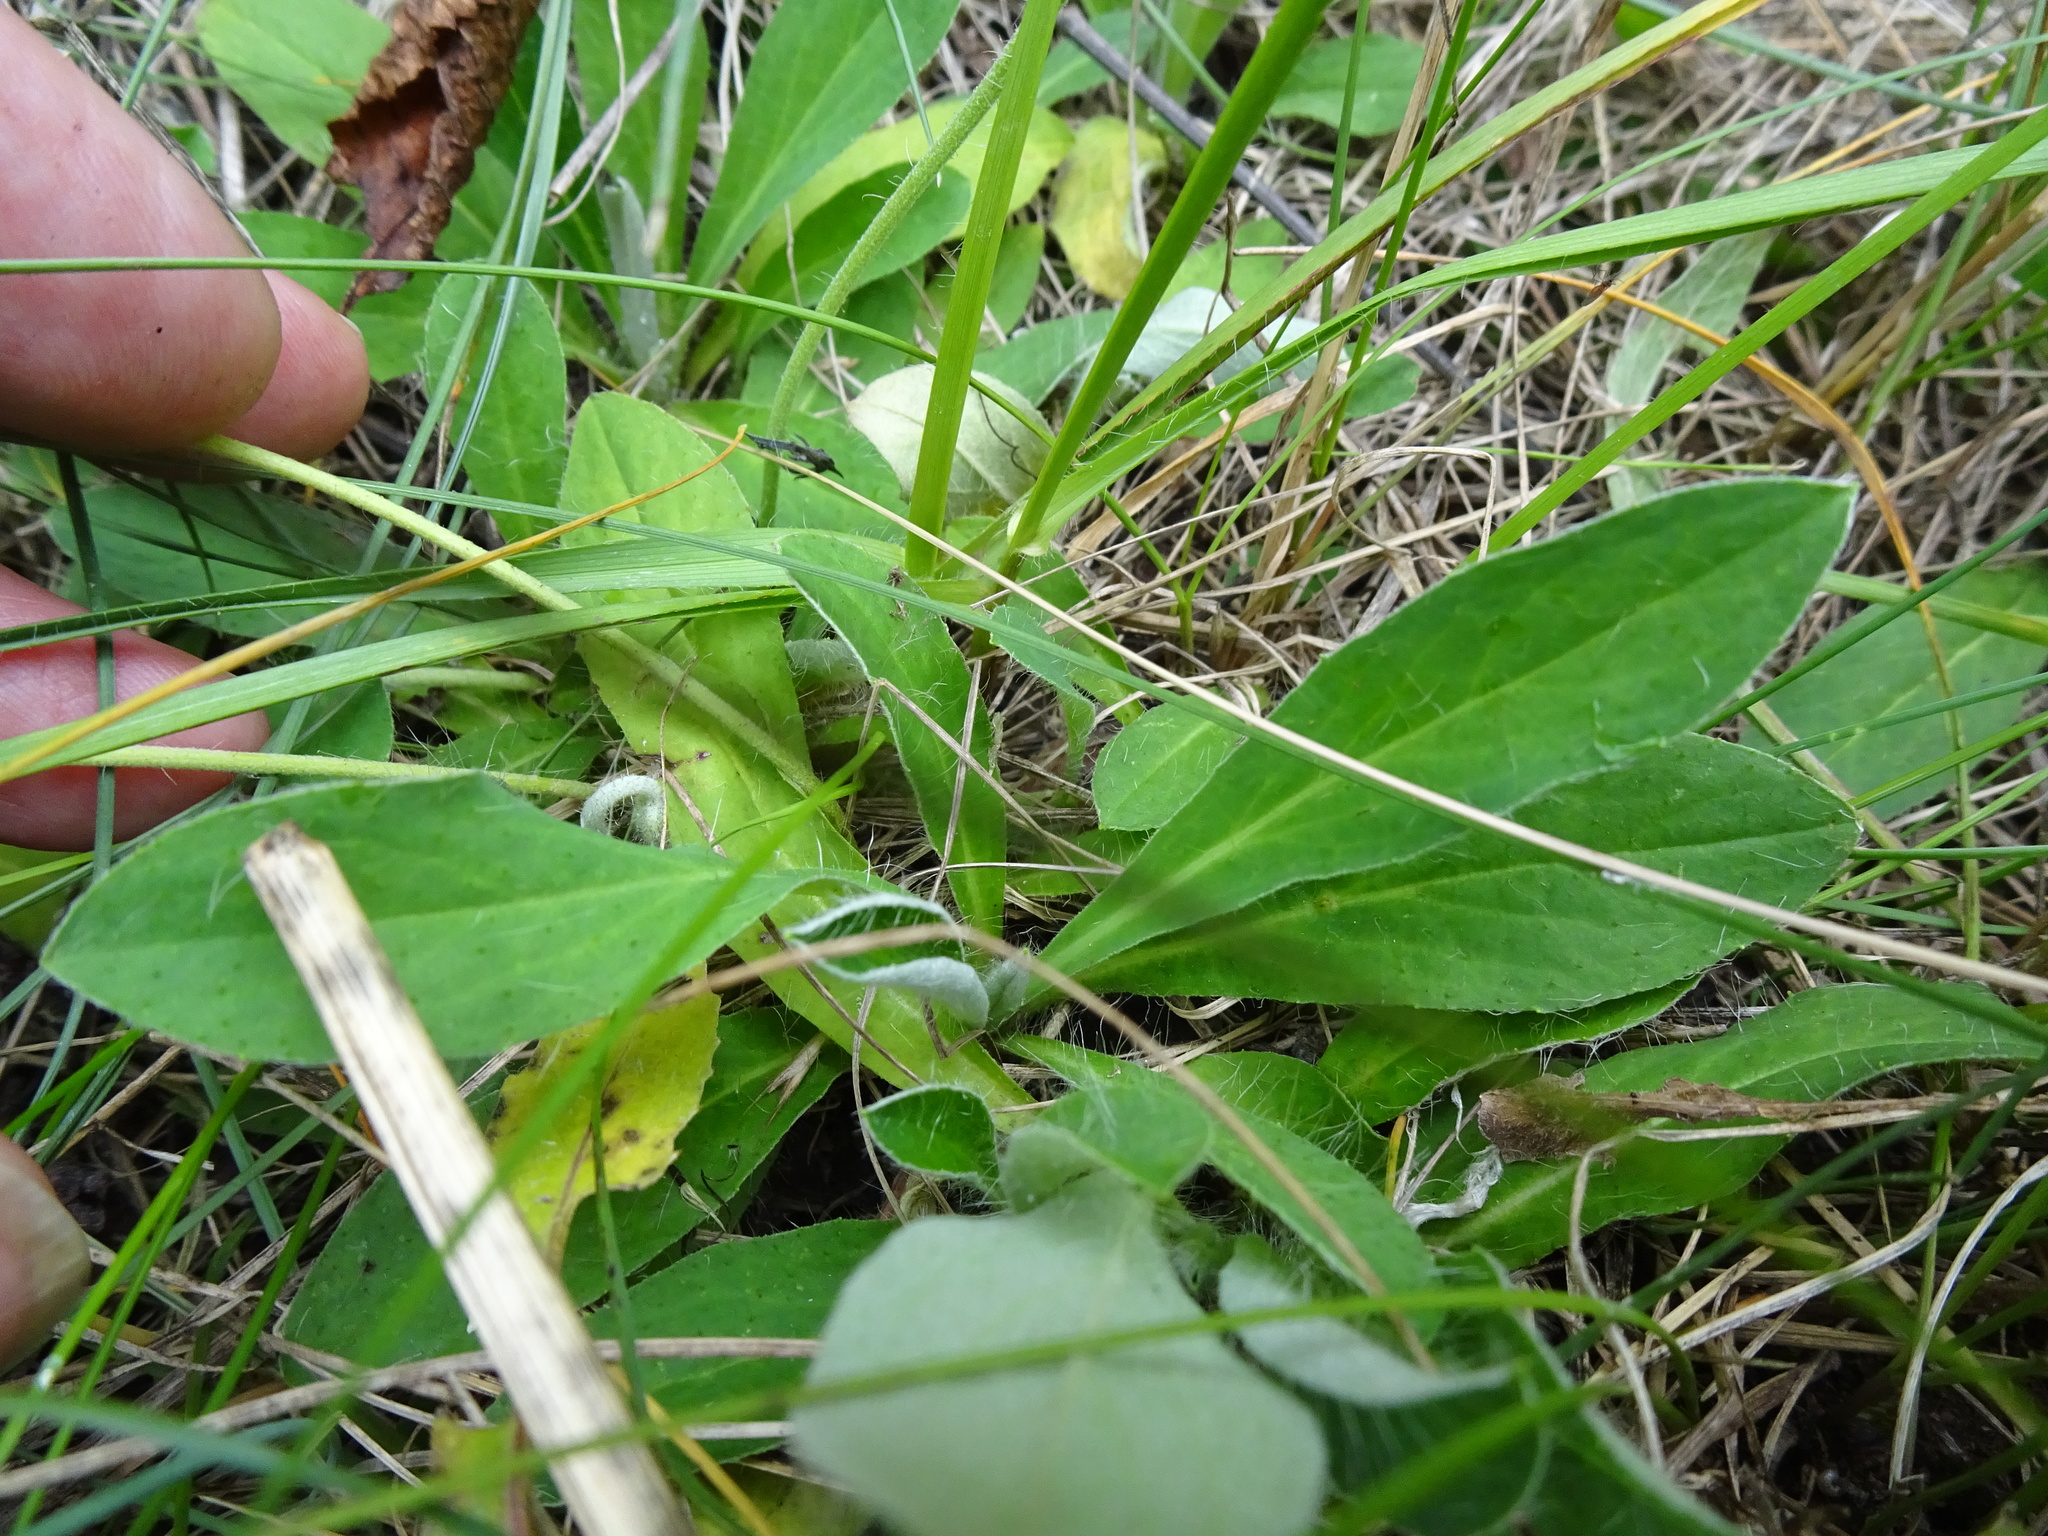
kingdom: Plantae
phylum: Tracheophyta
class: Magnoliopsida
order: Asterales
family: Asteraceae
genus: Pilosella
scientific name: Pilosella officinarum
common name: Mouse-ear hawkweed
